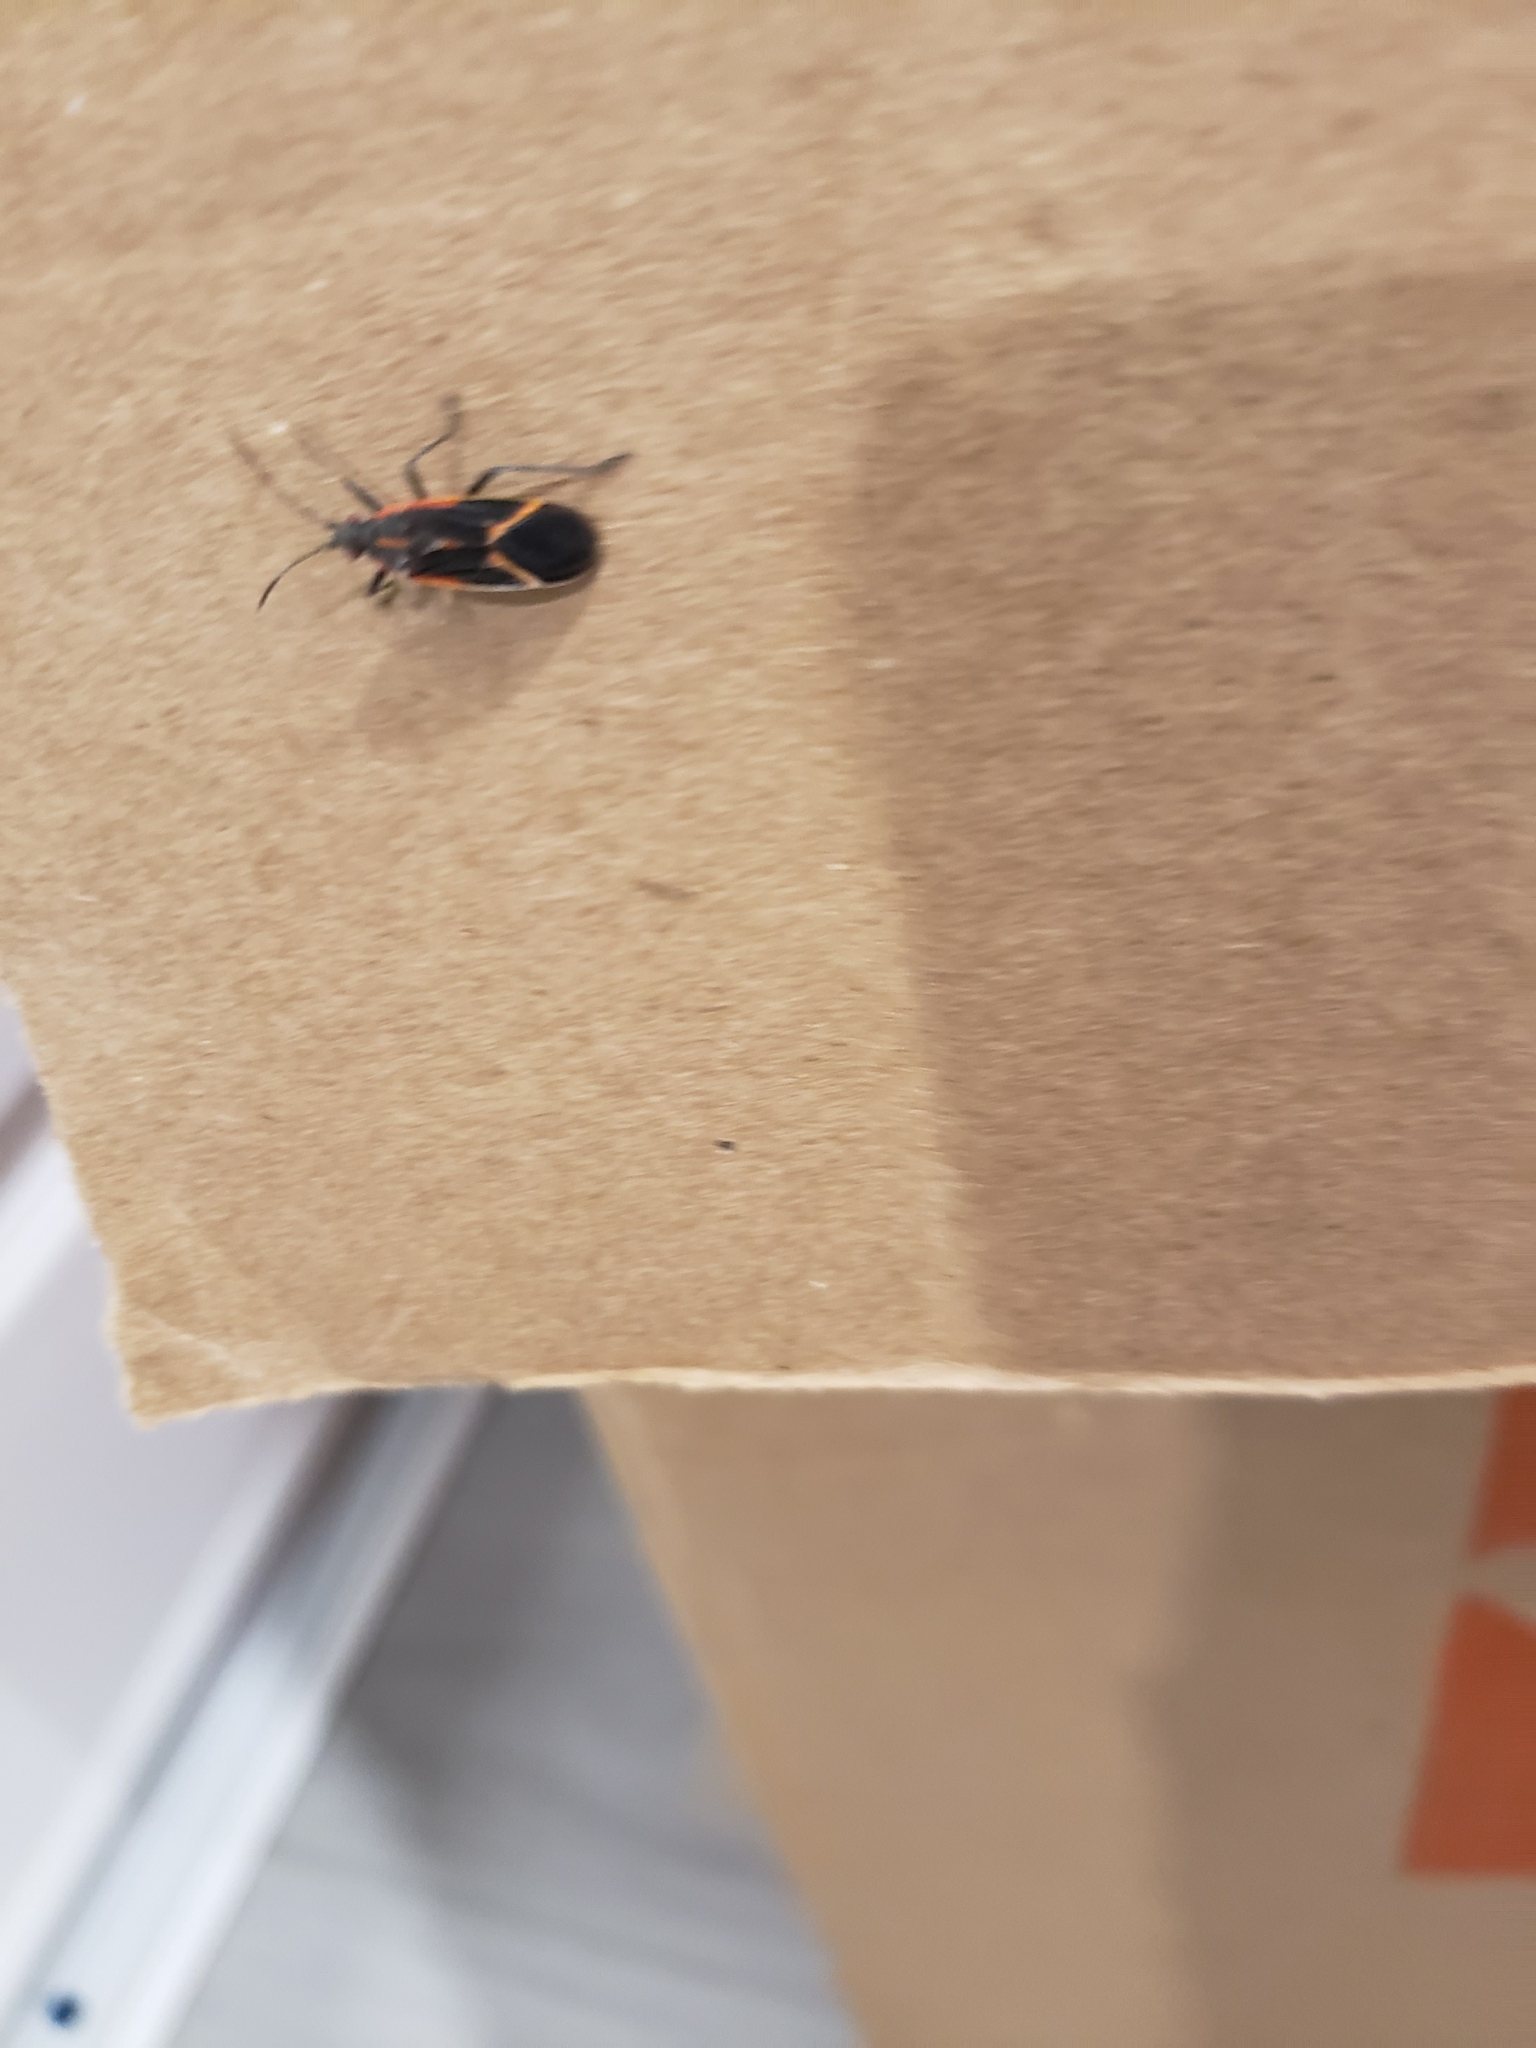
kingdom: Animalia
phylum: Arthropoda
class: Insecta
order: Hemiptera
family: Rhopalidae
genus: Boisea
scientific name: Boisea trivittata
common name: Boxelder bug
